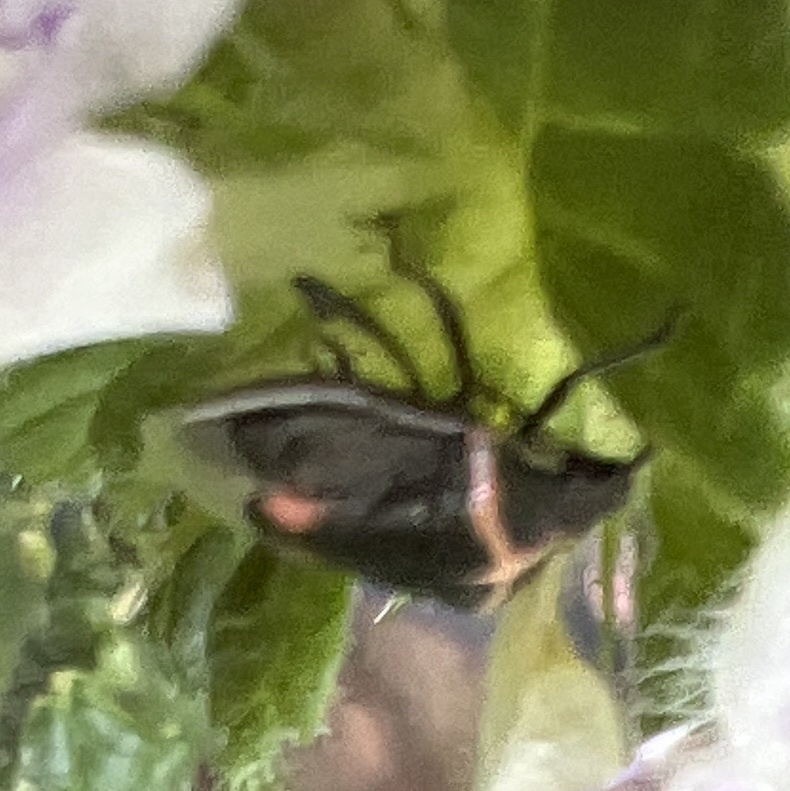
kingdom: Animalia
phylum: Arthropoda
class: Insecta
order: Hemiptera
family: Pentatomidae
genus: Cosmopepla
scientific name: Cosmopepla lintneriana
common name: Twice-stabbed stink bug
